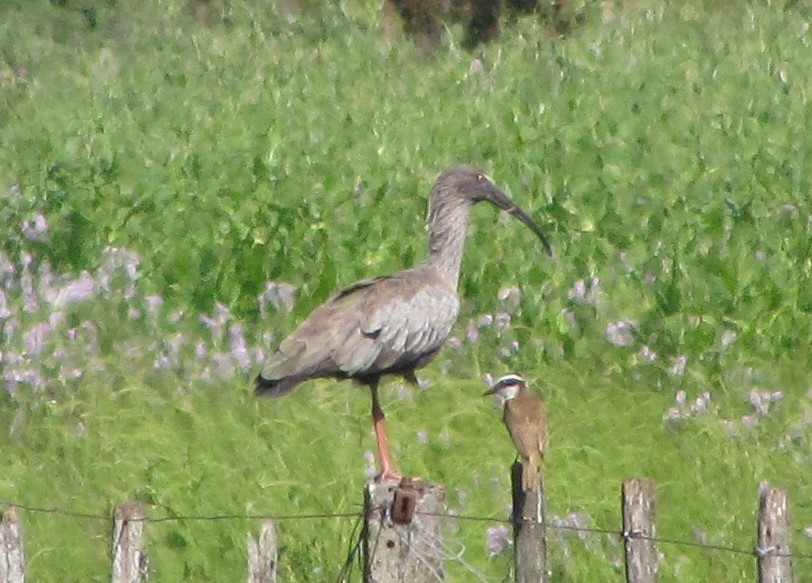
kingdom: Animalia
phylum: Chordata
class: Aves
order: Pelecaniformes
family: Threskiornithidae
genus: Theristicus
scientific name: Theristicus caerulescens
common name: Plumbeous ibis
